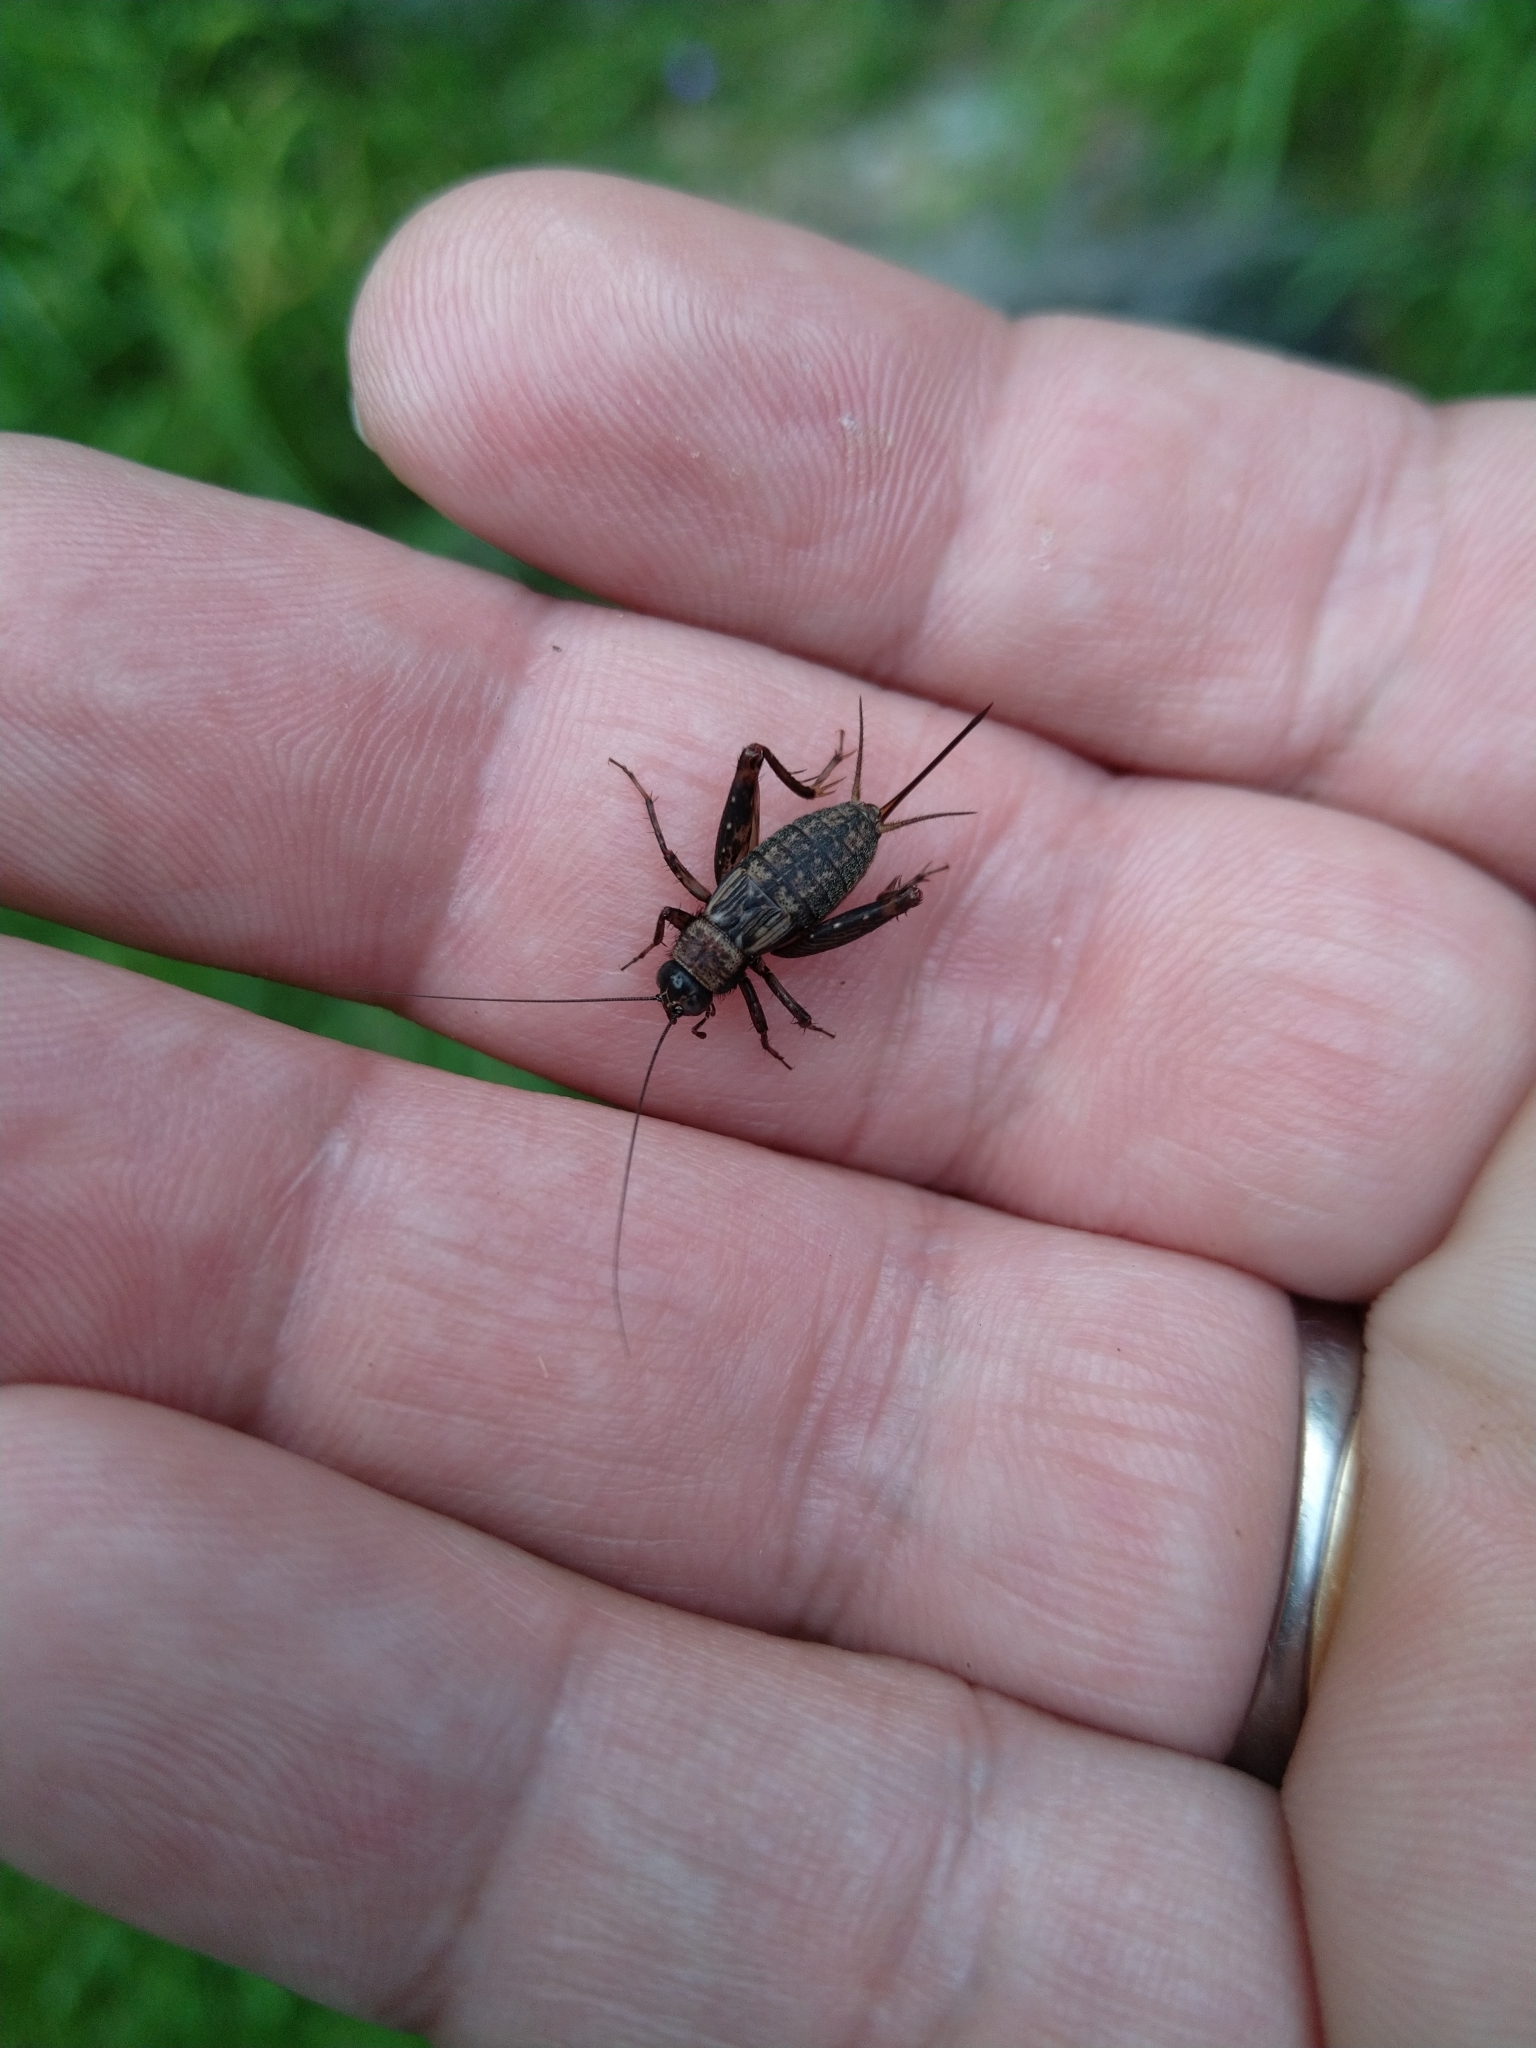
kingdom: Animalia
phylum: Arthropoda
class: Insecta
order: Orthoptera
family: Trigonidiidae
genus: Nemobius
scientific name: Nemobius sylvestris
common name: Wood-cricket
